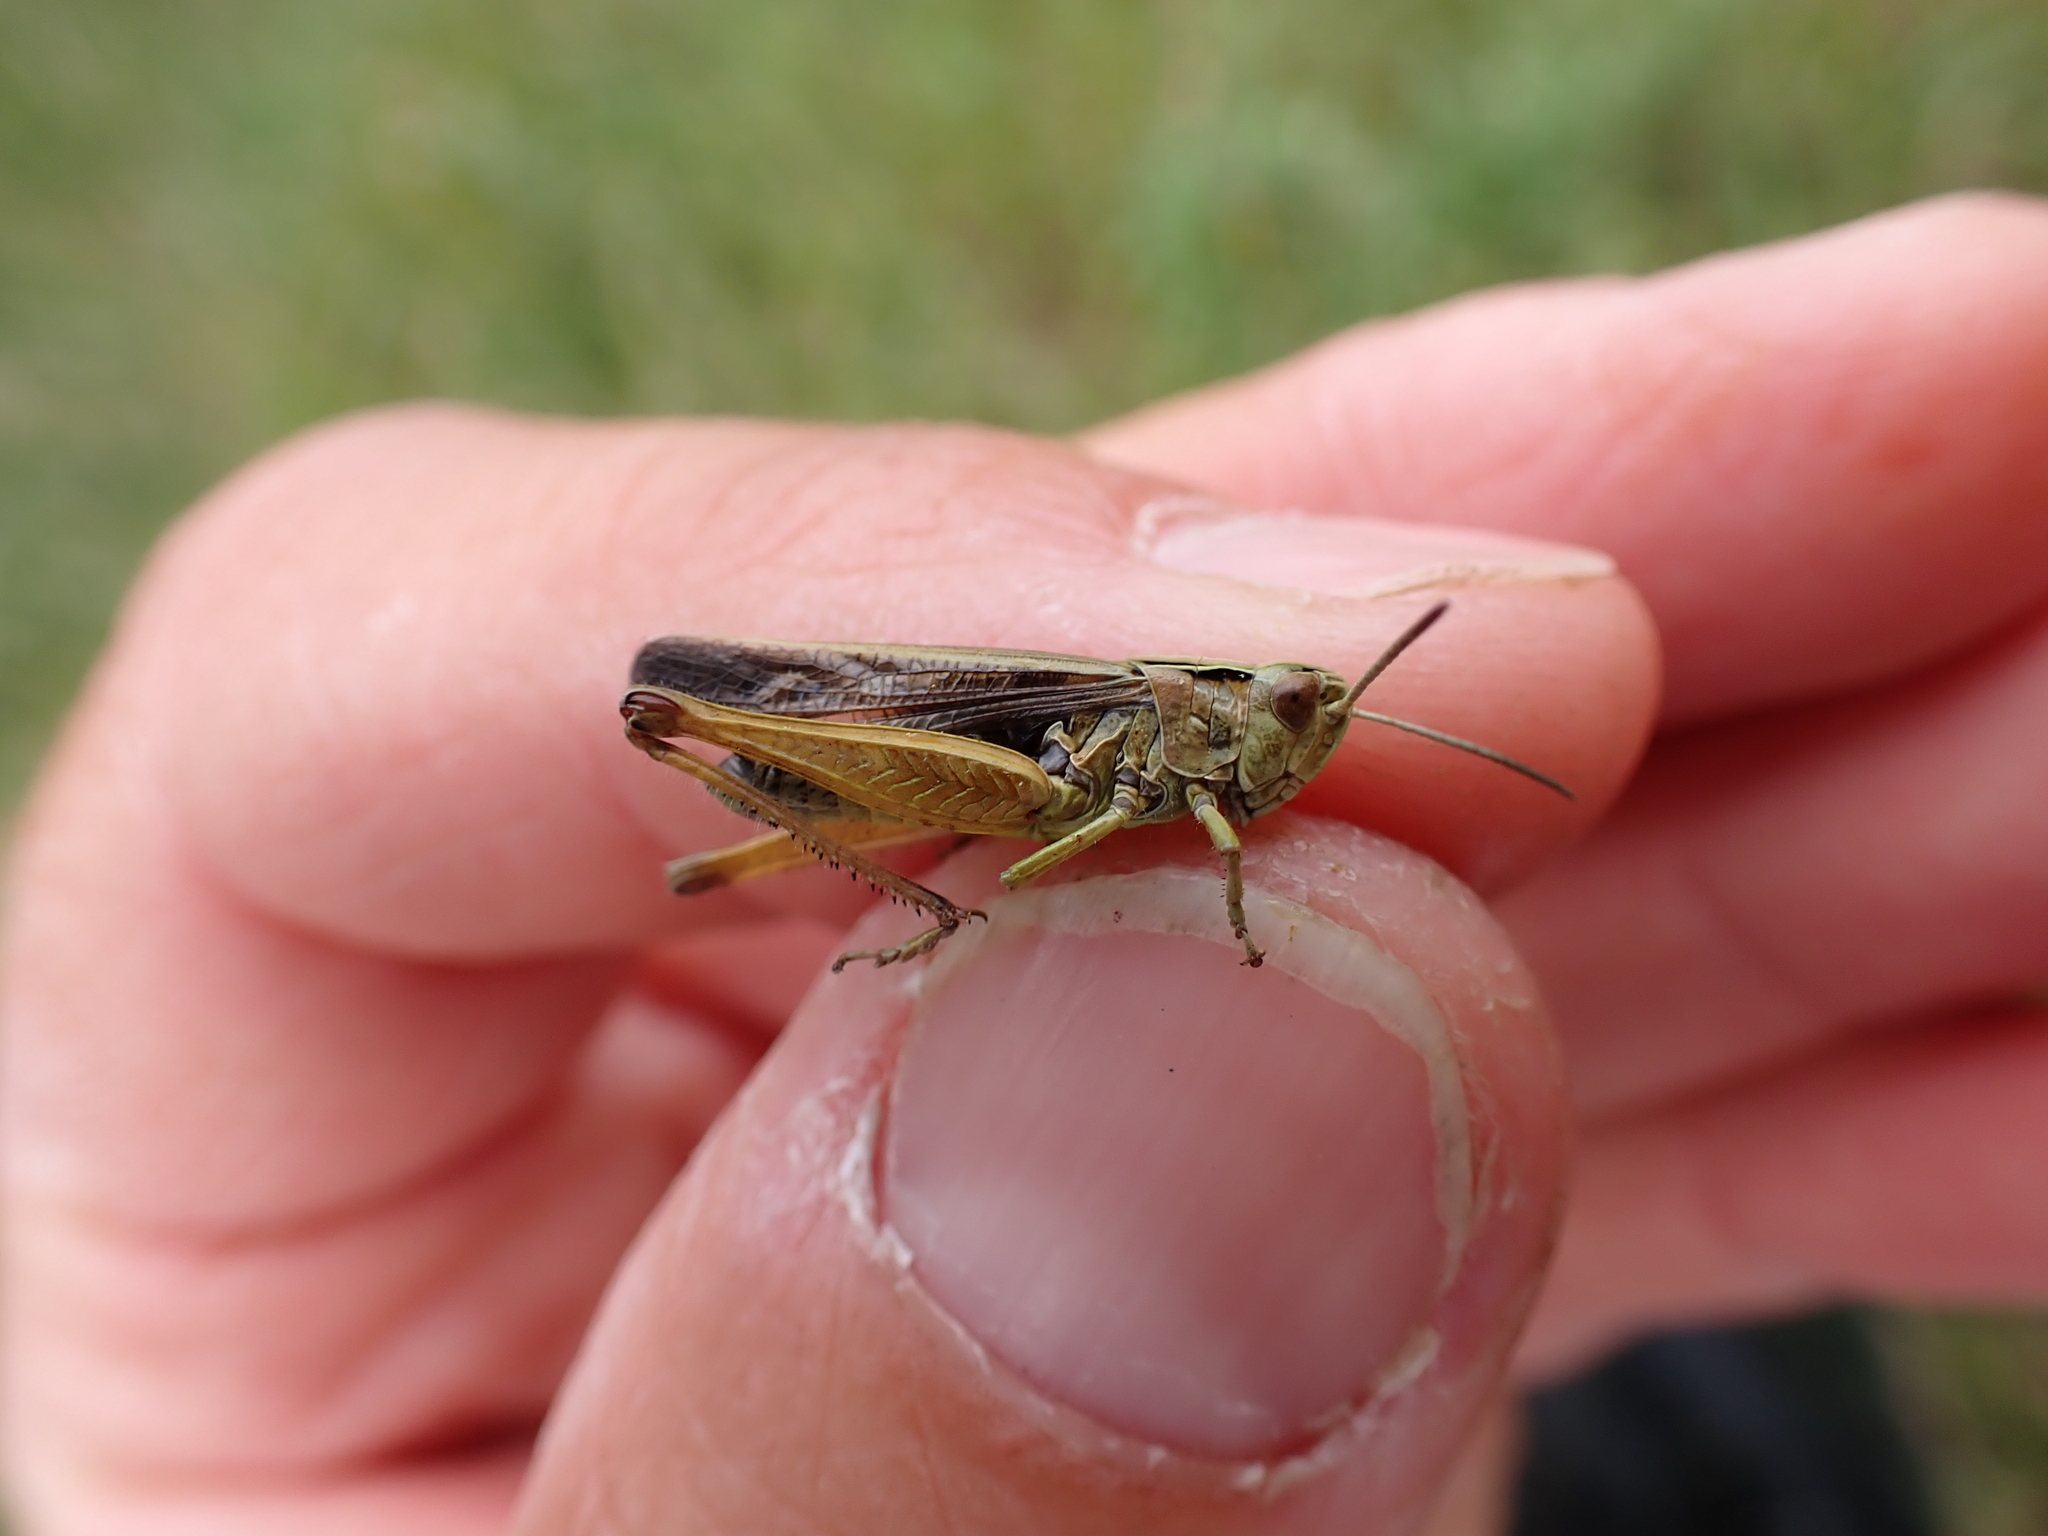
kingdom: Animalia
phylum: Arthropoda
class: Insecta
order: Orthoptera
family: Acrididae
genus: Omocestus
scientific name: Omocestus viridulus
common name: Common green grasshopper
